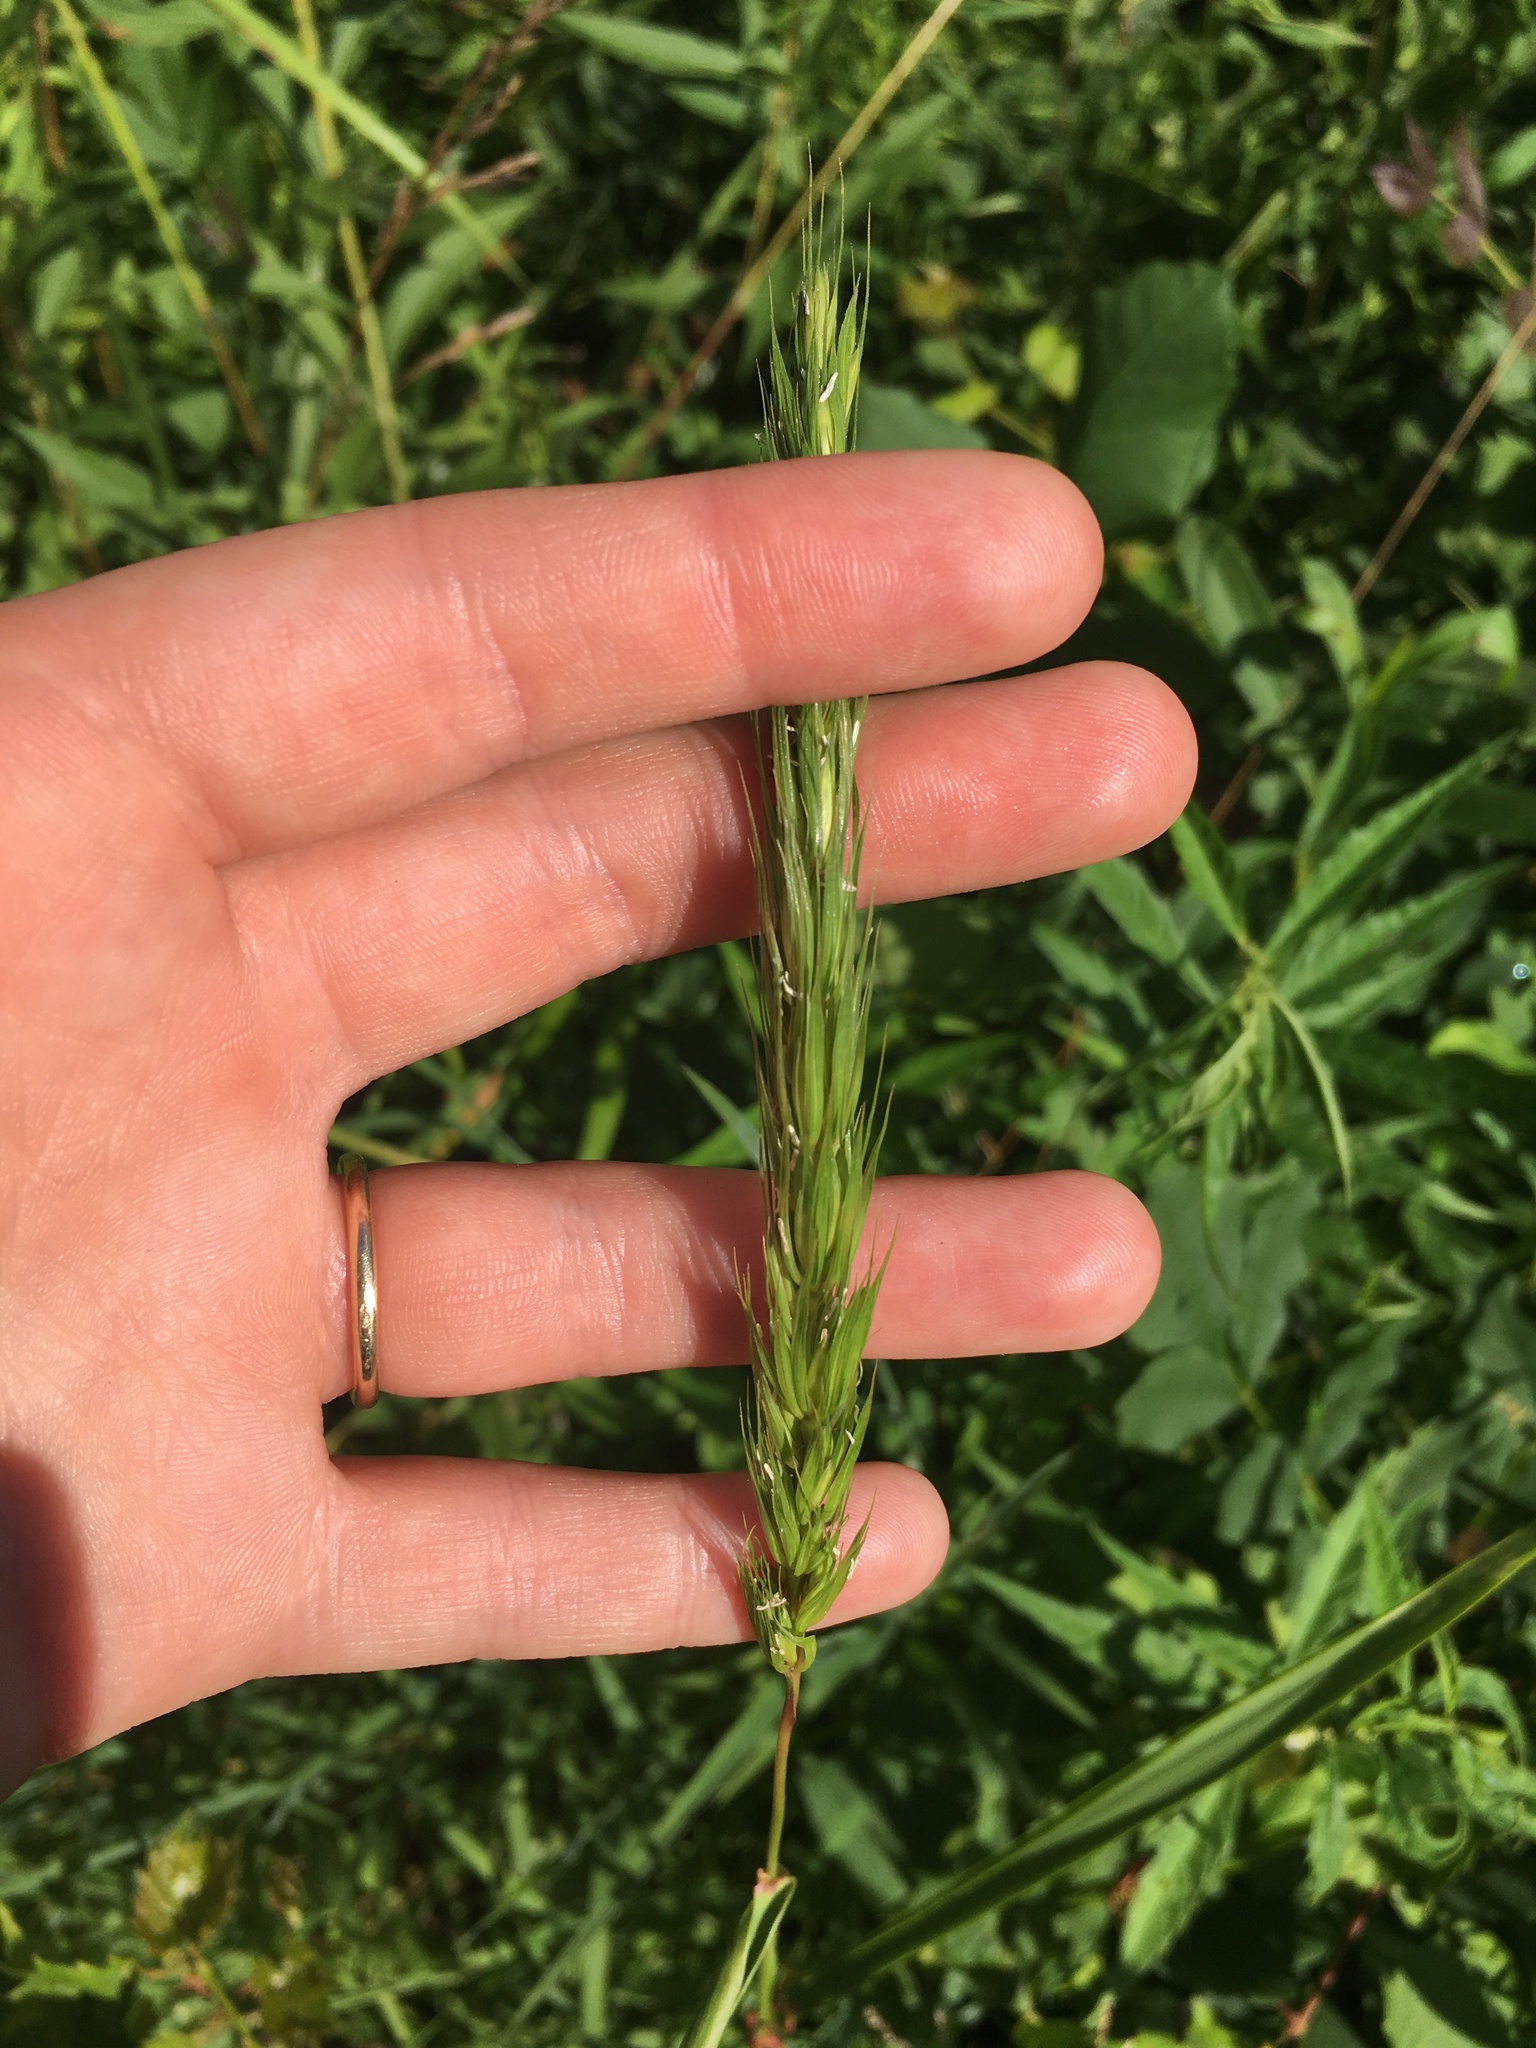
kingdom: Plantae
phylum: Tracheophyta
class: Liliopsida
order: Poales
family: Poaceae
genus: Elymus
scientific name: Elymus virginicus
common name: Common eastern wildrye
